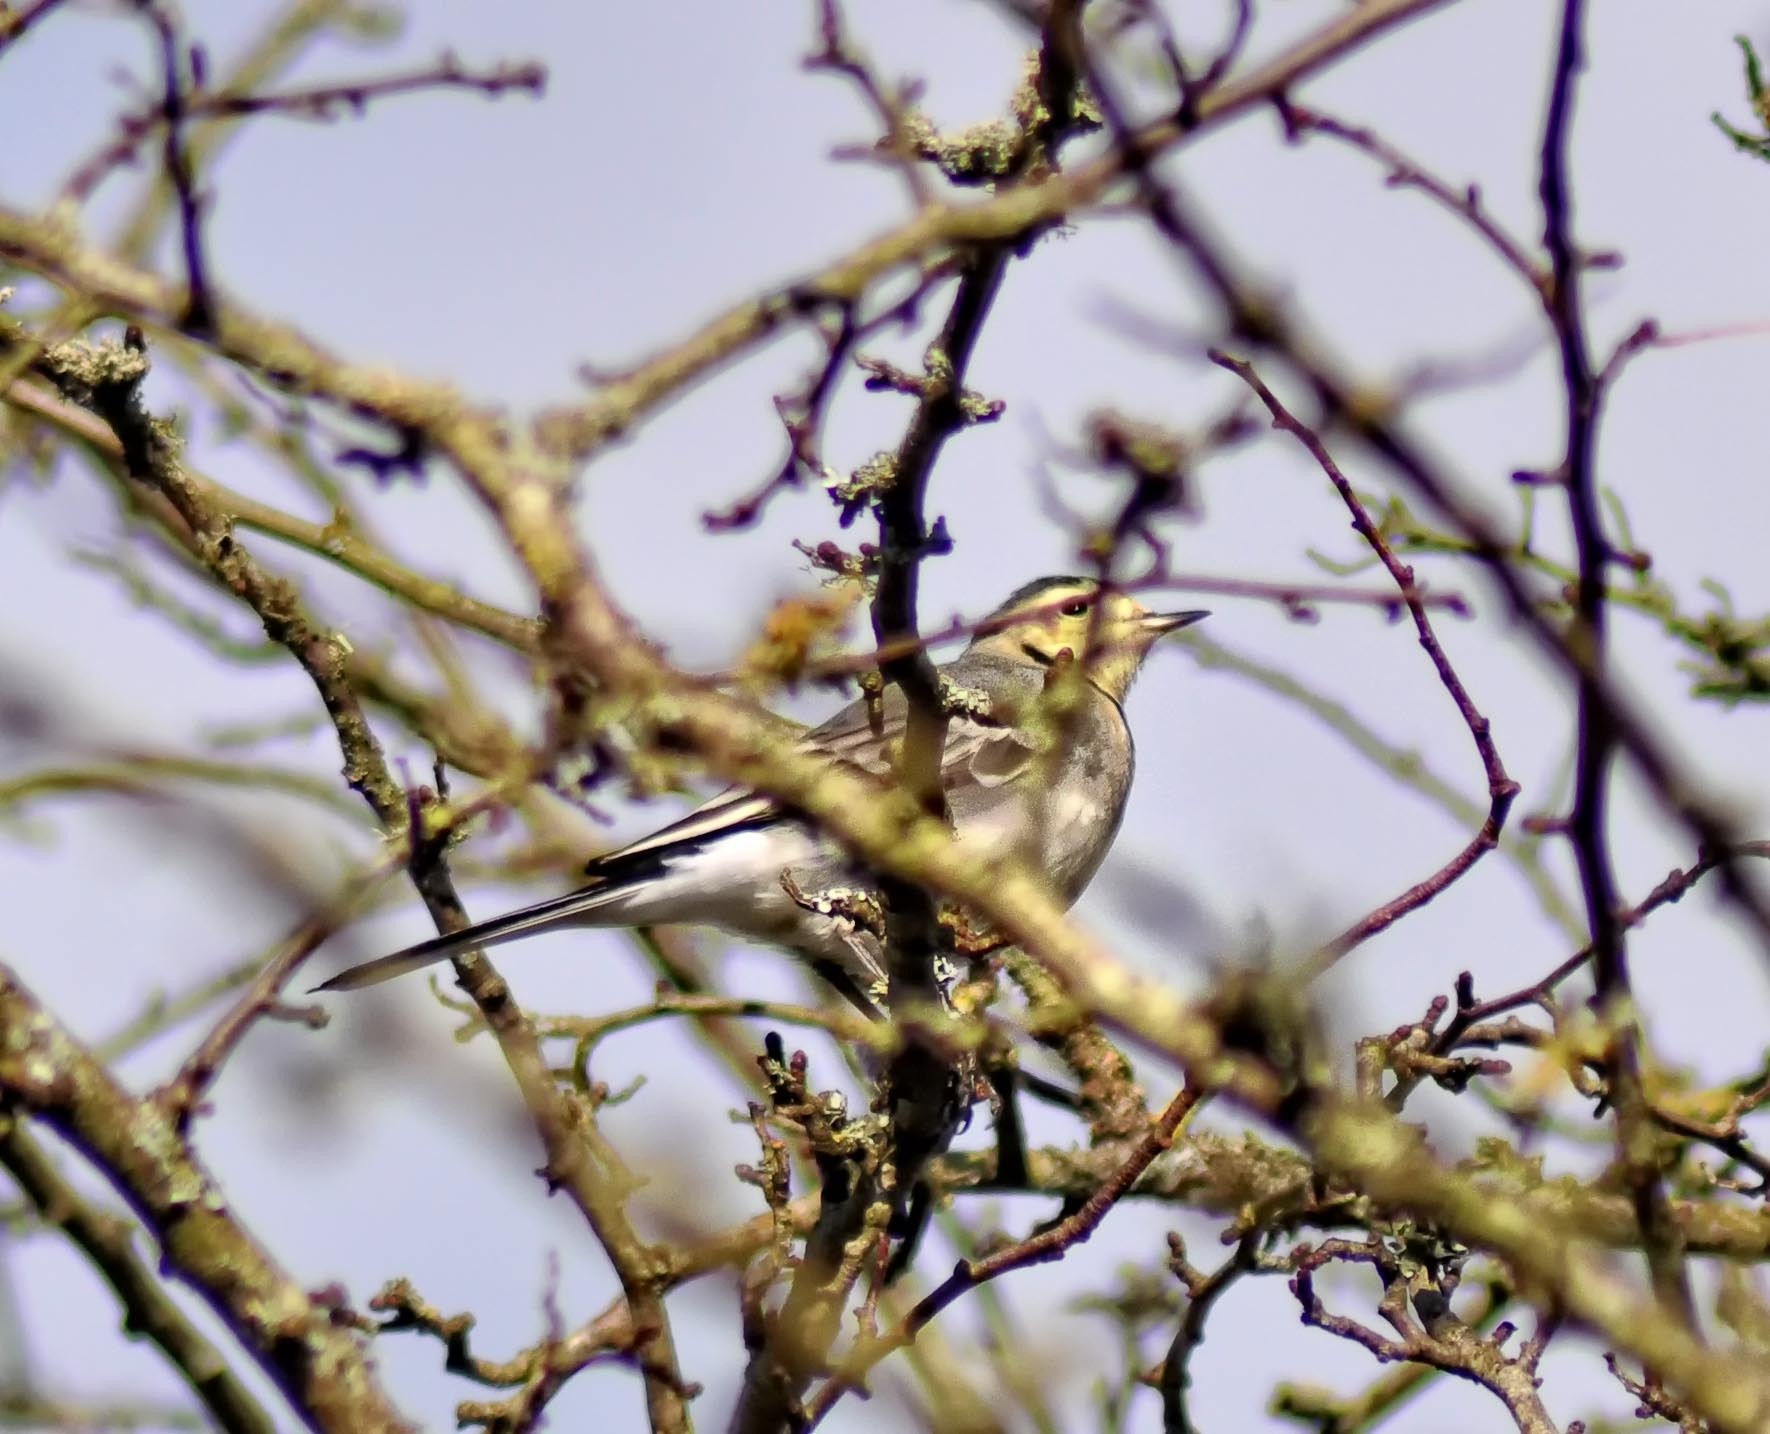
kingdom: Animalia
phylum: Chordata
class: Aves
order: Passeriformes
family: Motacillidae
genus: Motacilla
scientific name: Motacilla alba
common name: White wagtail
